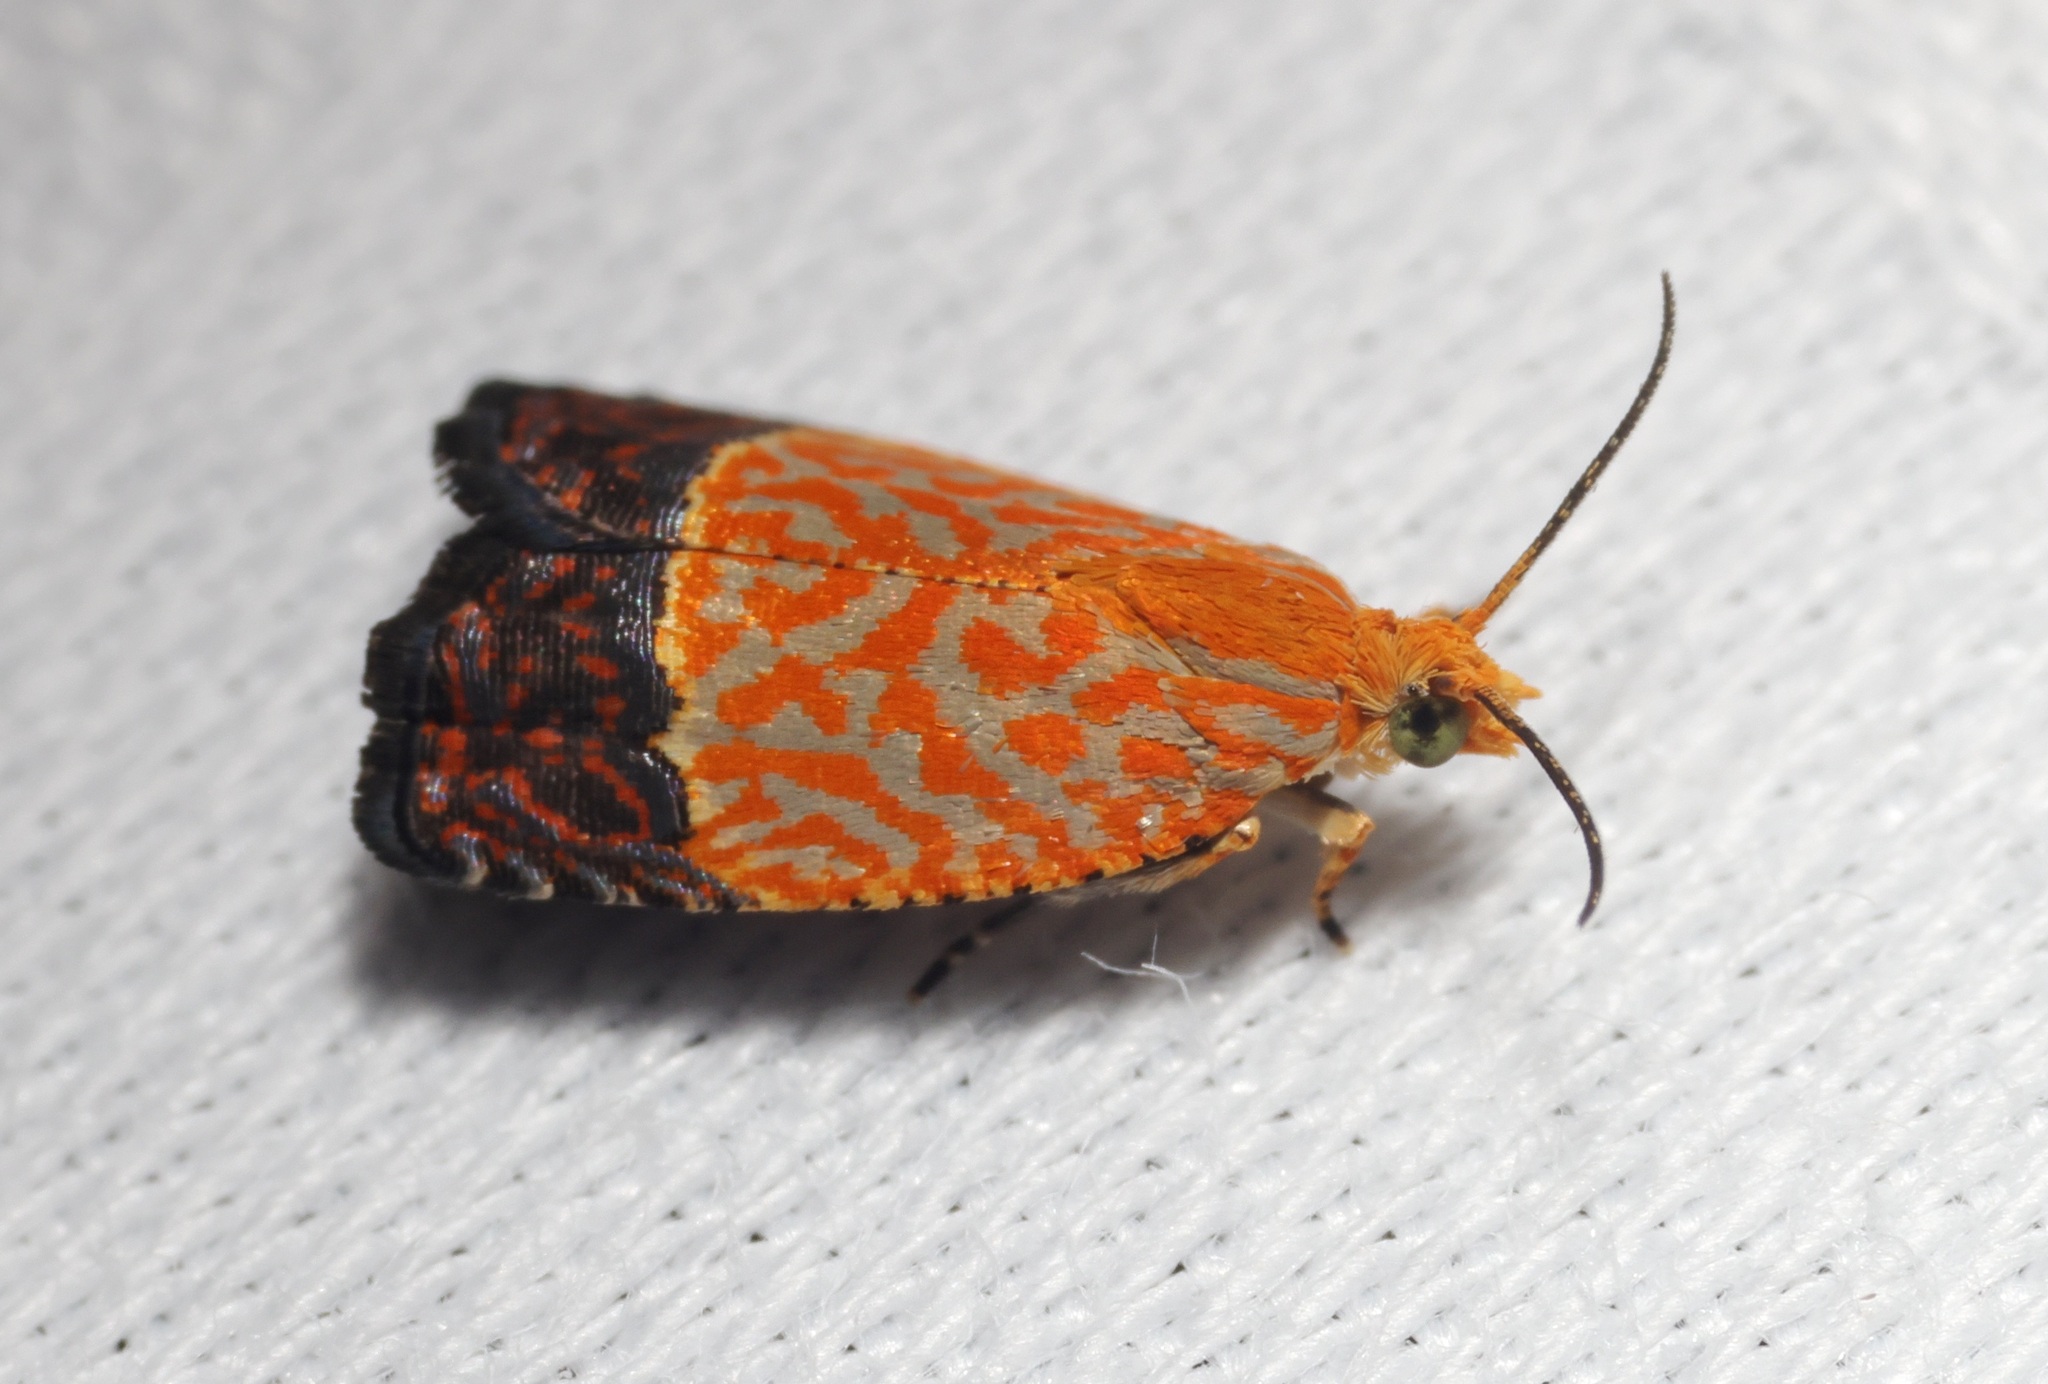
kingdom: Animalia
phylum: Arthropoda
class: Insecta
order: Lepidoptera
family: Tortricidae
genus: Loboschiza
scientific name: Loboschiza koenigiana
